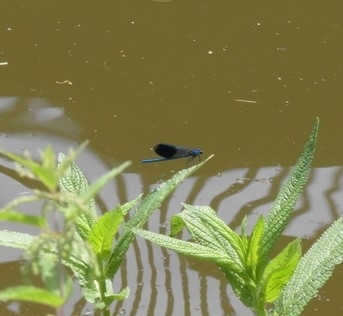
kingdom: Animalia
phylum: Arthropoda
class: Insecta
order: Odonata
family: Calopterygidae
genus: Calopteryx
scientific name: Calopteryx splendens
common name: Banded demoiselle
